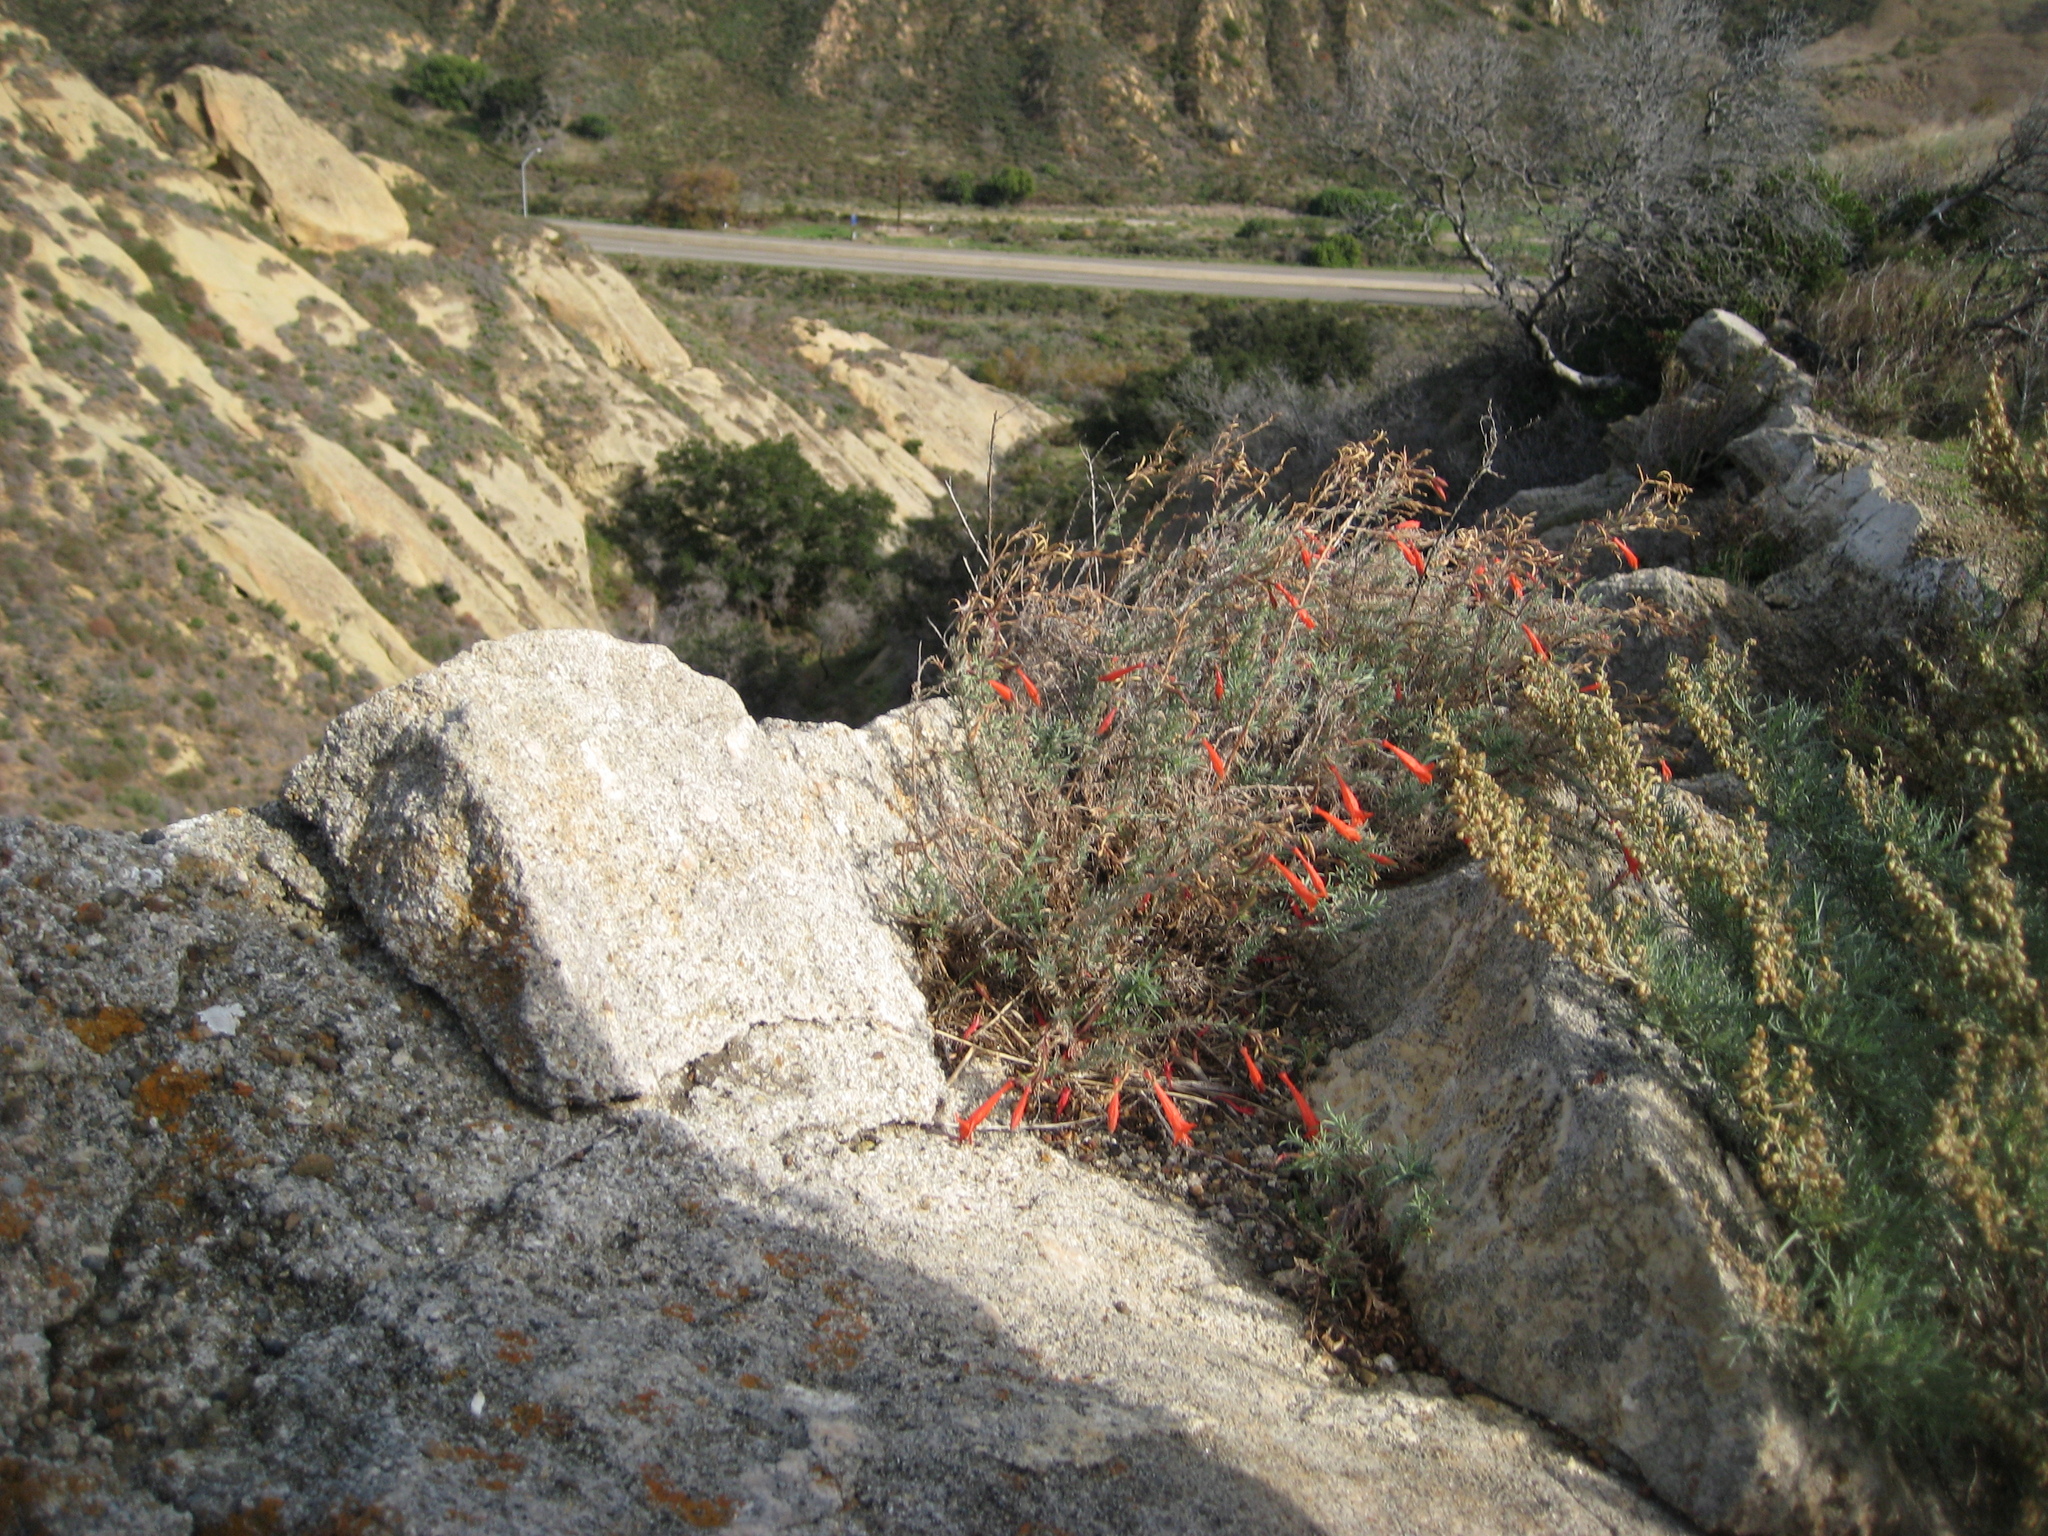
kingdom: Plantae
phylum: Tracheophyta
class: Magnoliopsida
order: Myrtales
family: Onagraceae
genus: Epilobium
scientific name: Epilobium canum
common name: California-fuchsia
